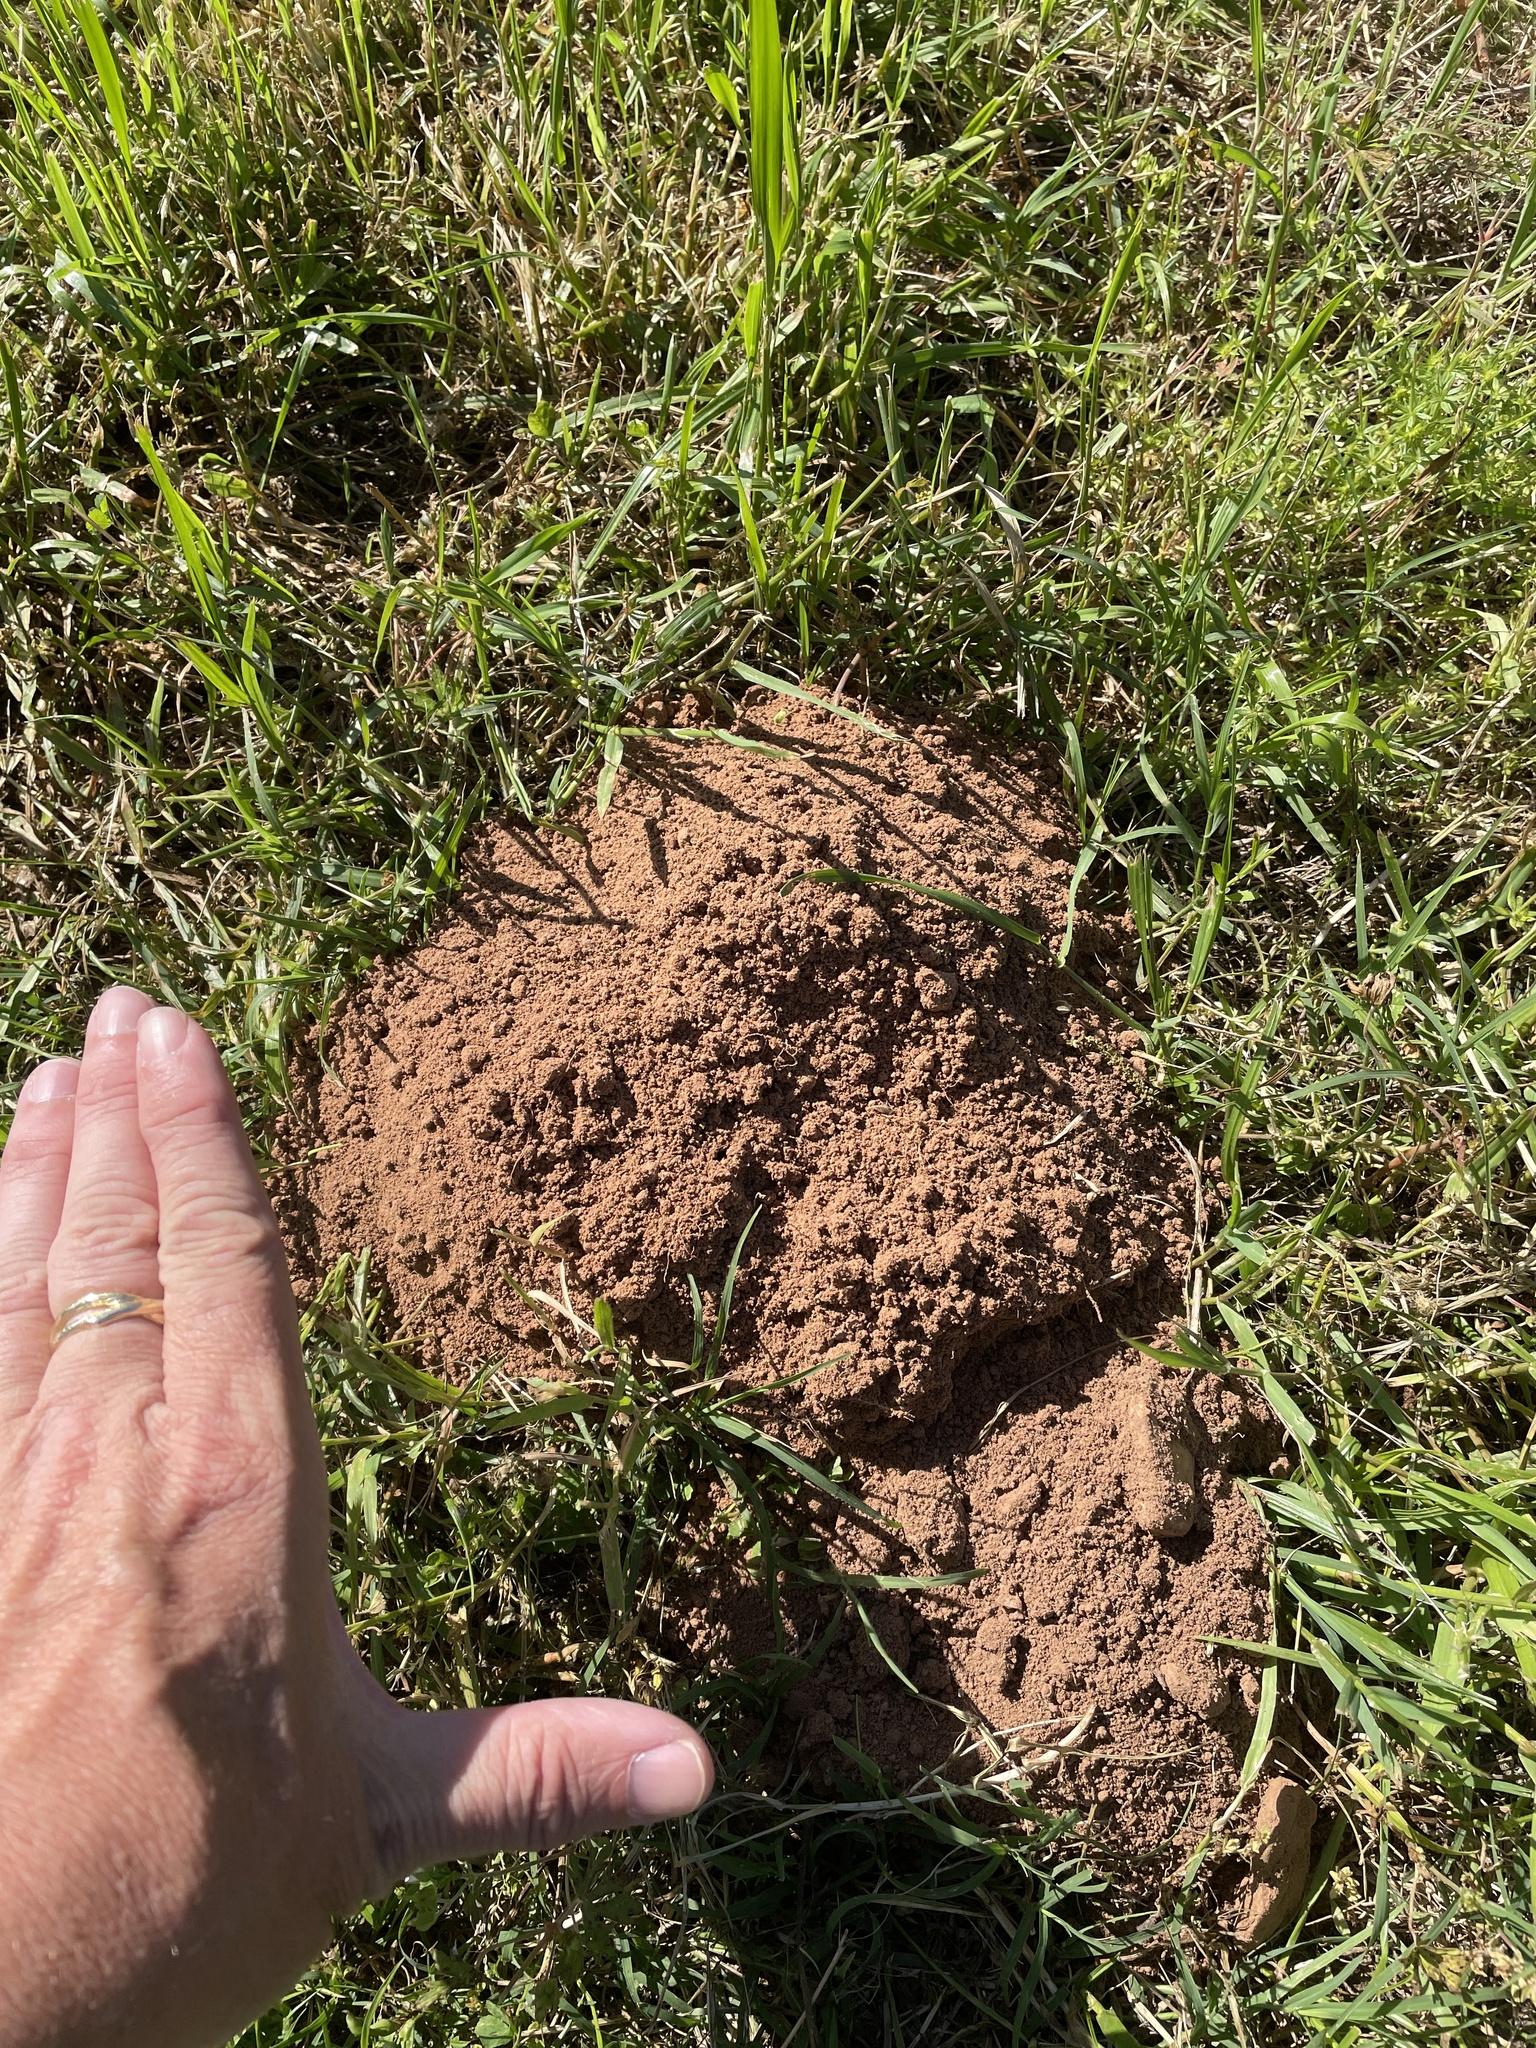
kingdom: Animalia
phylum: Chordata
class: Mammalia
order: Rodentia
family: Geomyidae
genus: Geomys
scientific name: Geomys breviceps
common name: Baird's pocket gopher
